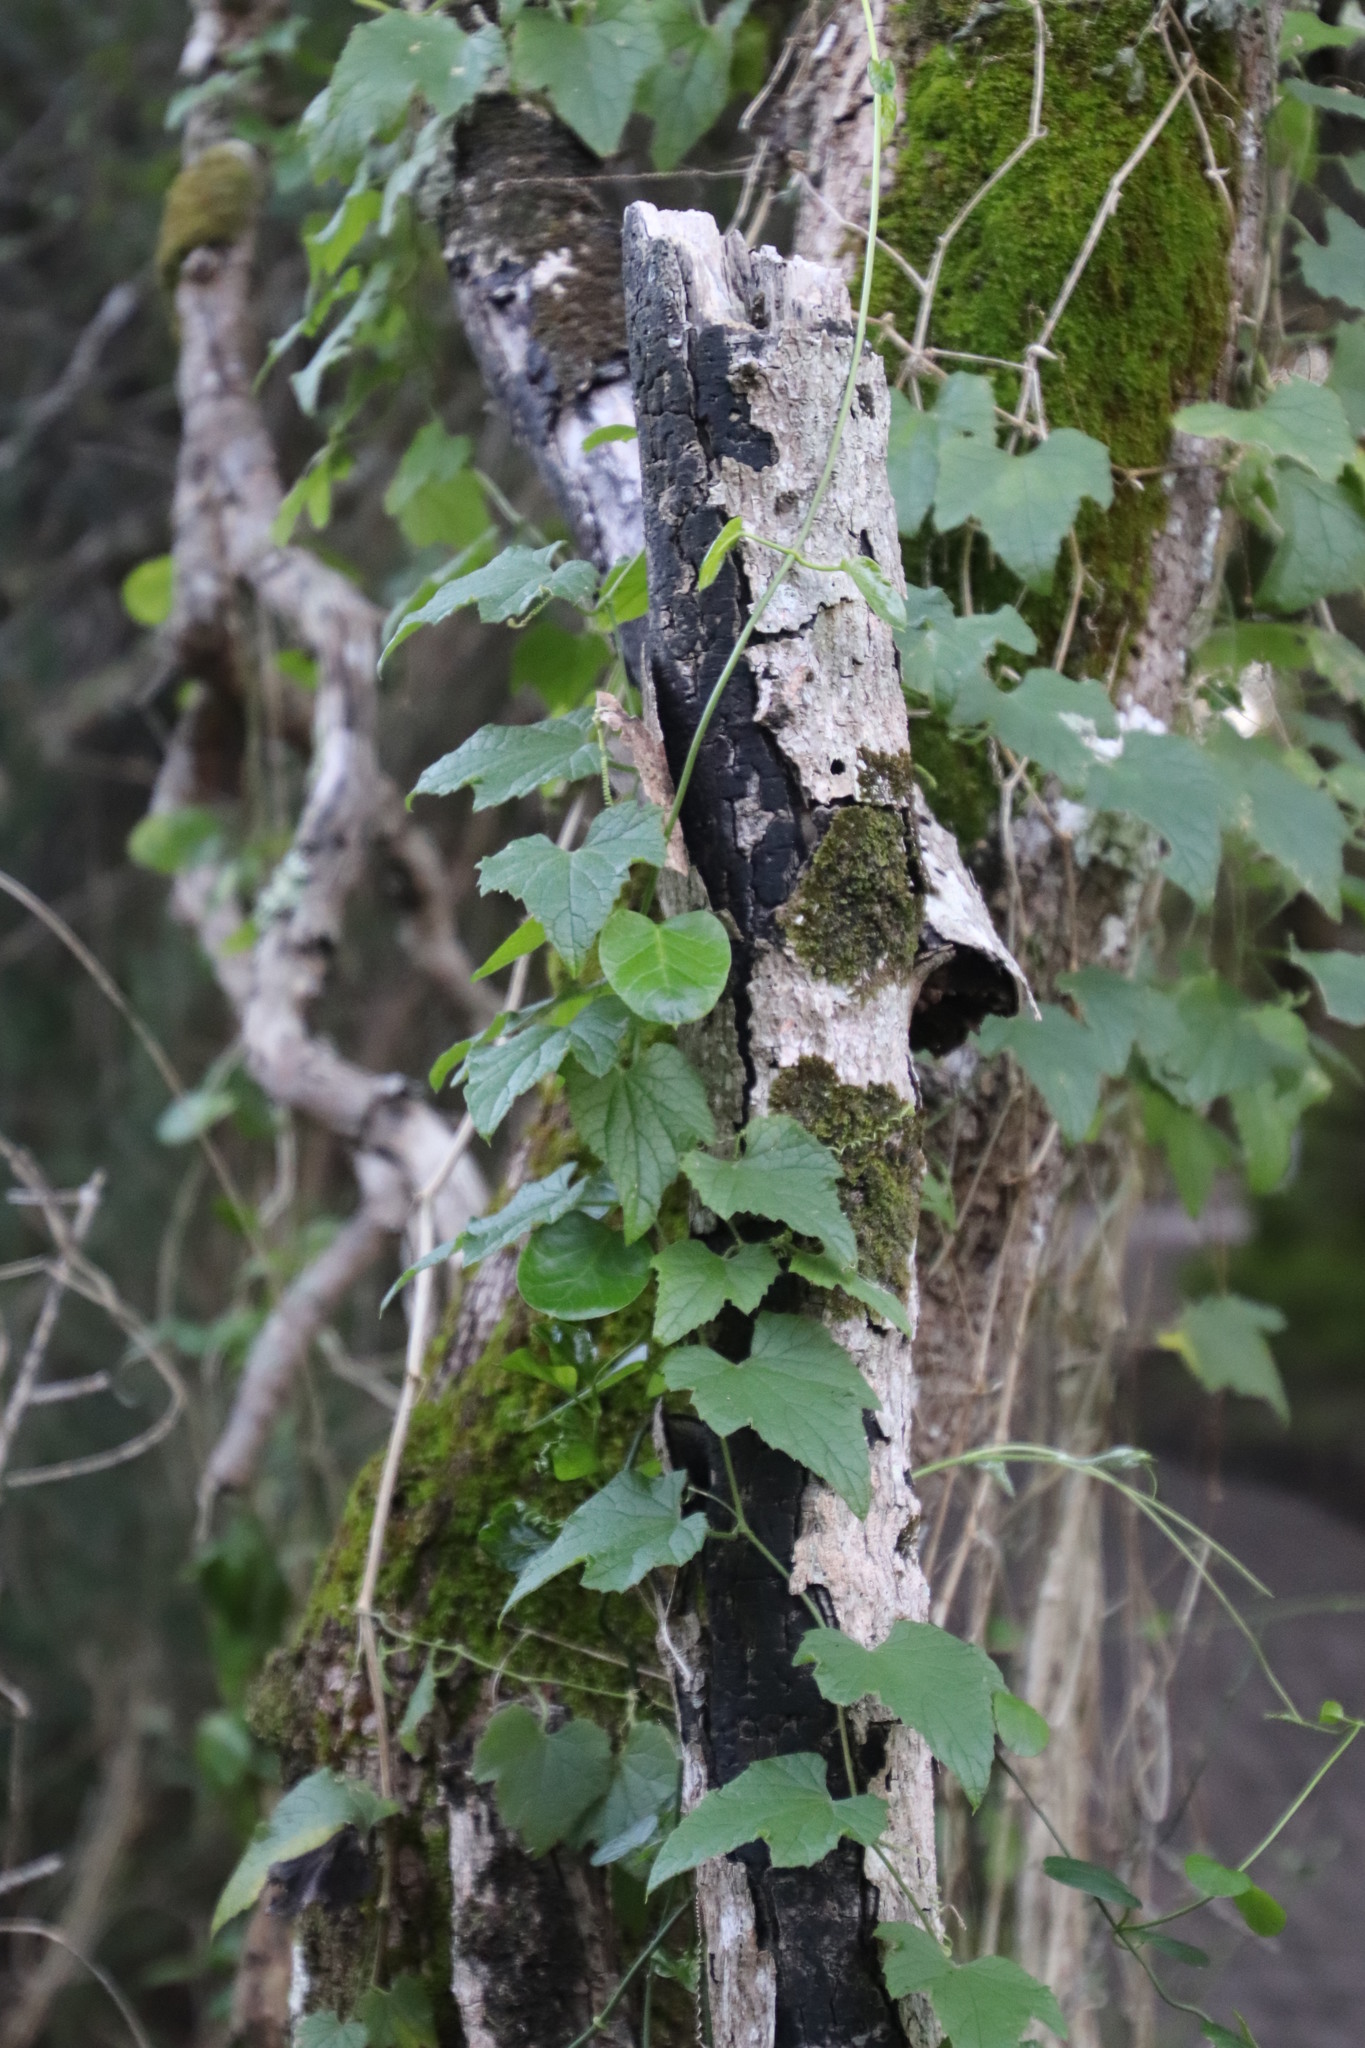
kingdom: Plantae
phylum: Tracheophyta
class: Magnoliopsida
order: Cucurbitales
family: Cucurbitaceae
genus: Zehneria
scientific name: Zehneria scabra
